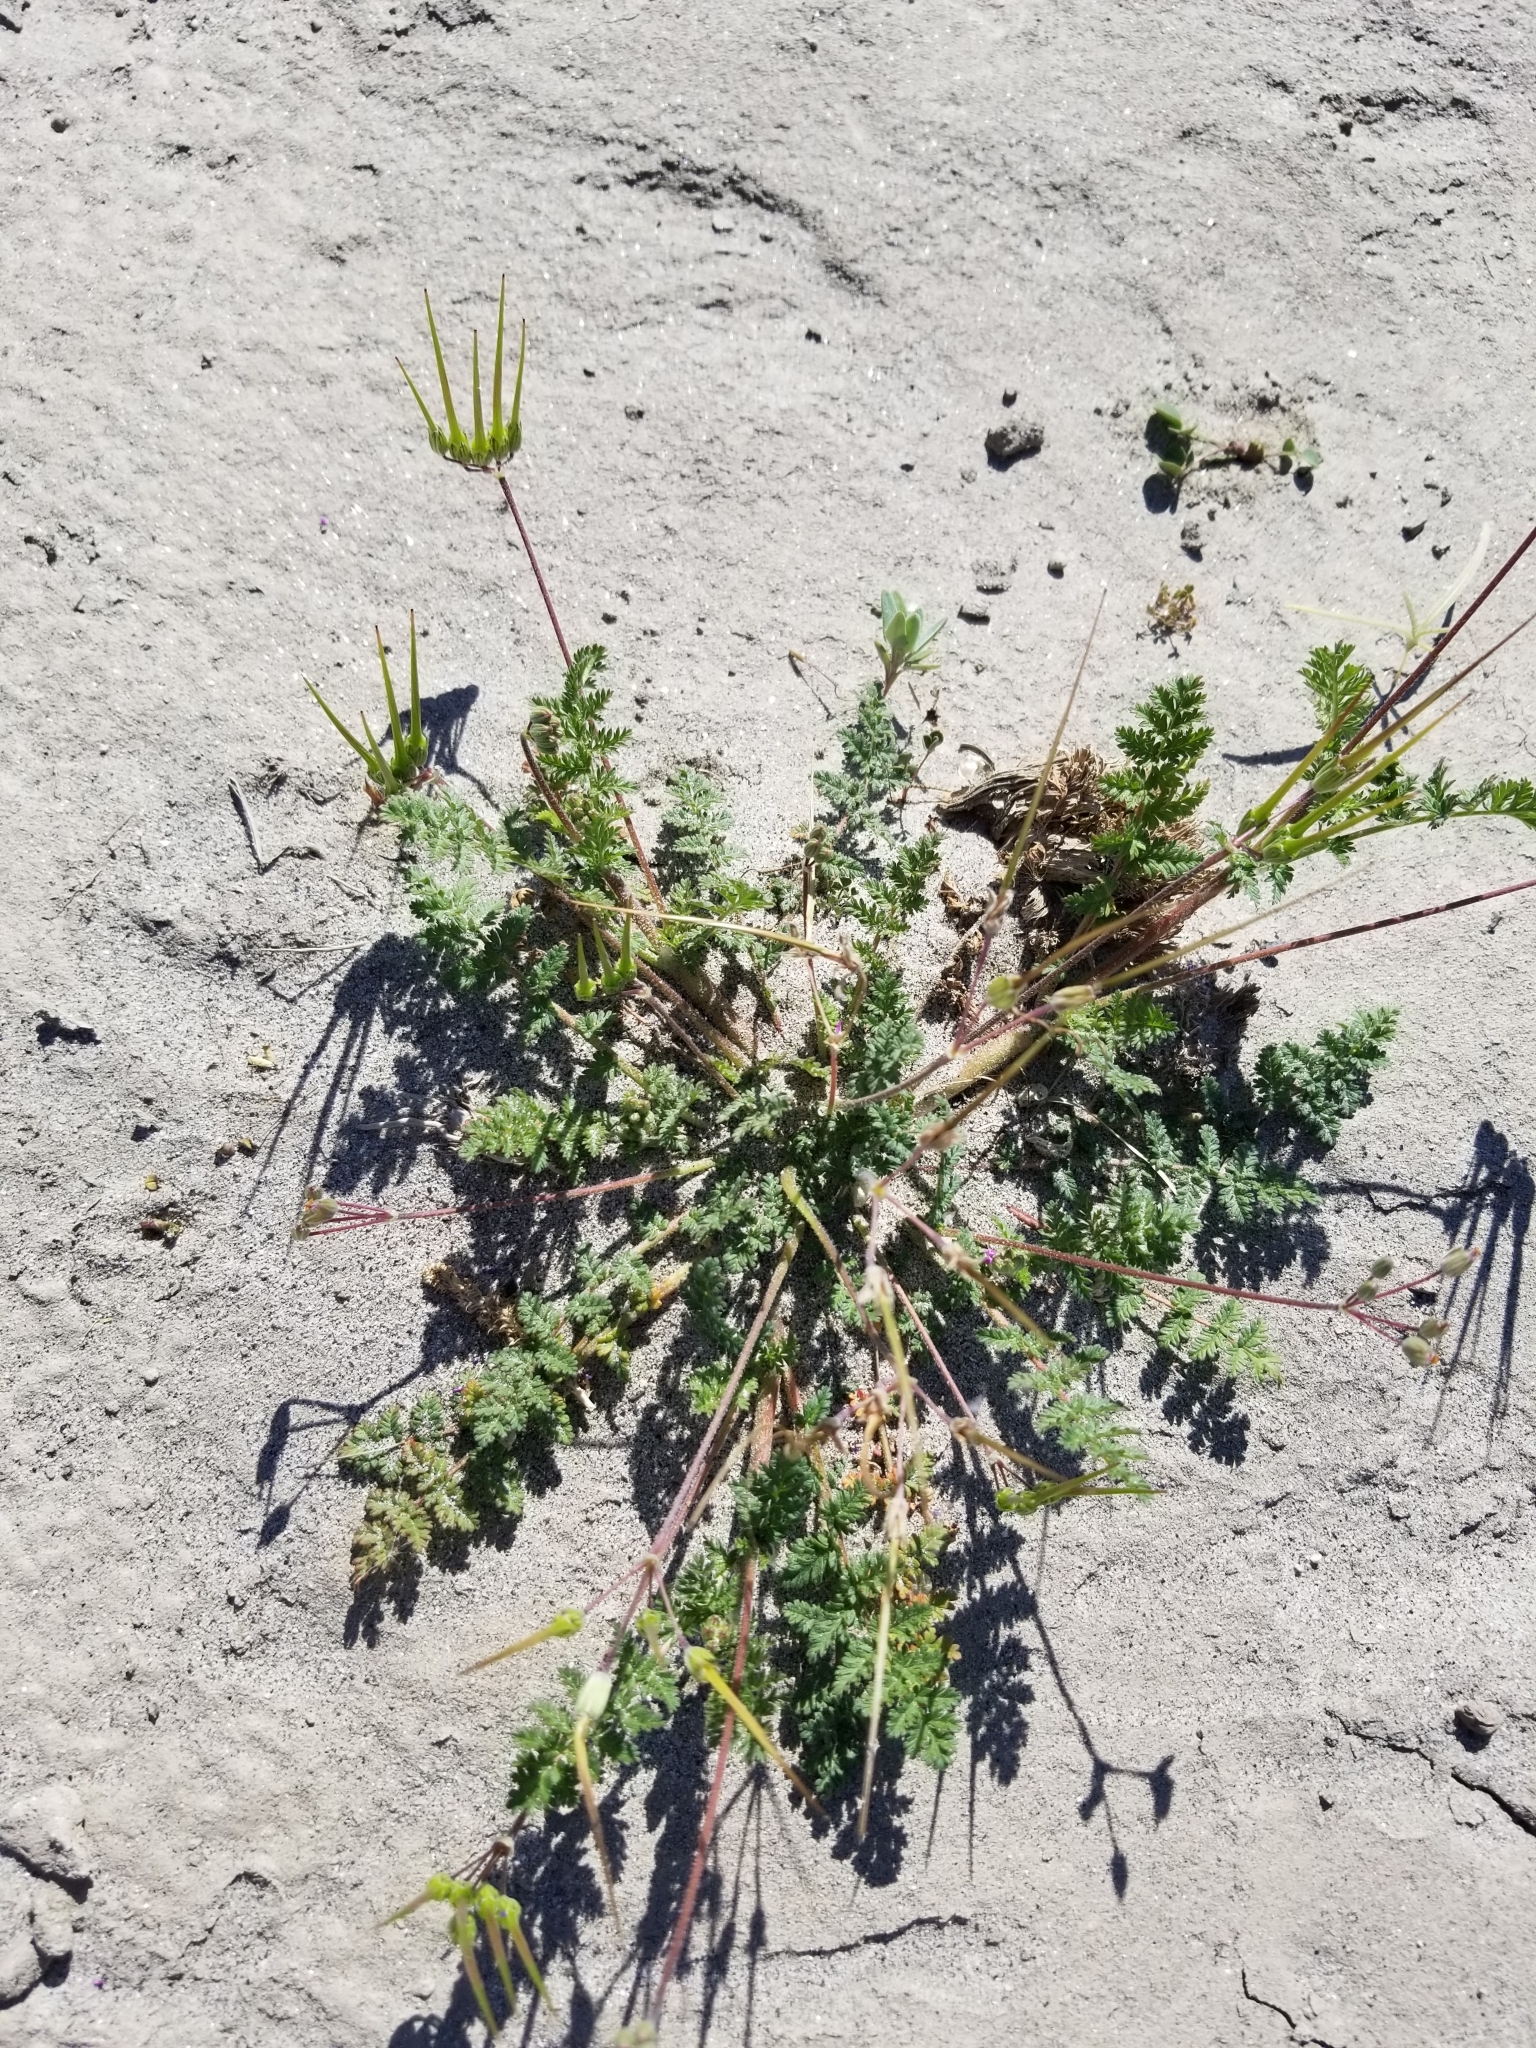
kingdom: Plantae
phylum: Tracheophyta
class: Magnoliopsida
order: Geraniales
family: Geraniaceae
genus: Erodium
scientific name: Erodium cicutarium
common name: Common stork's-bill
